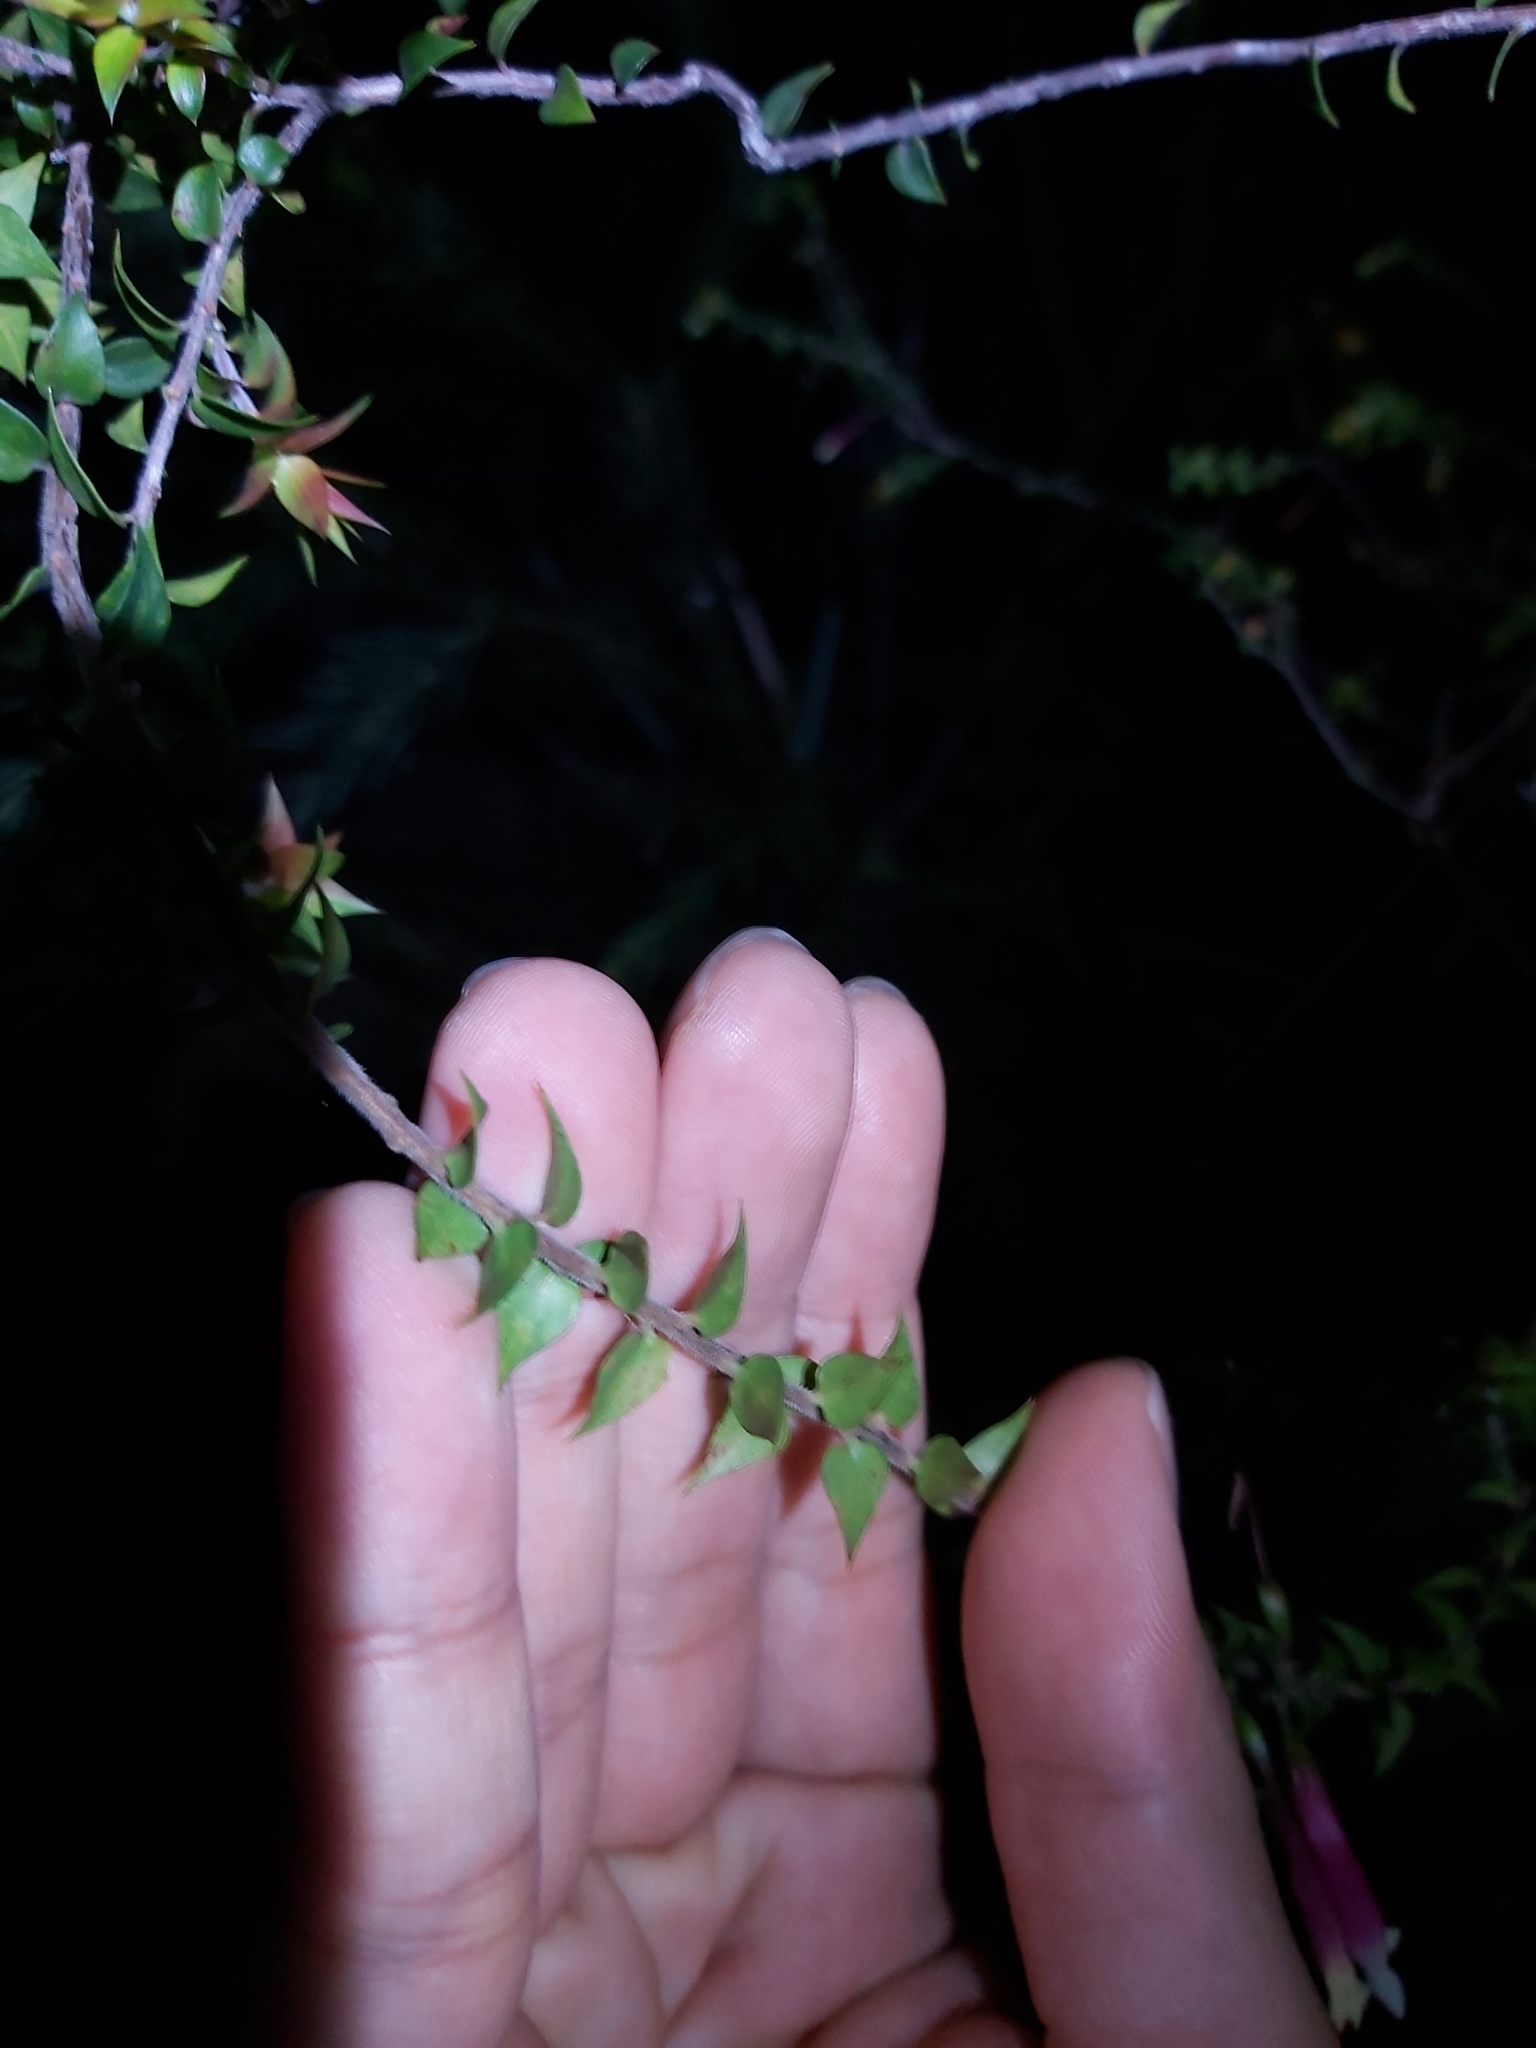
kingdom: Plantae
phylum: Tracheophyta
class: Magnoliopsida
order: Ericales
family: Ericaceae
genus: Epacris
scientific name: Epacris longiflora
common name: Fuchsia-heath
